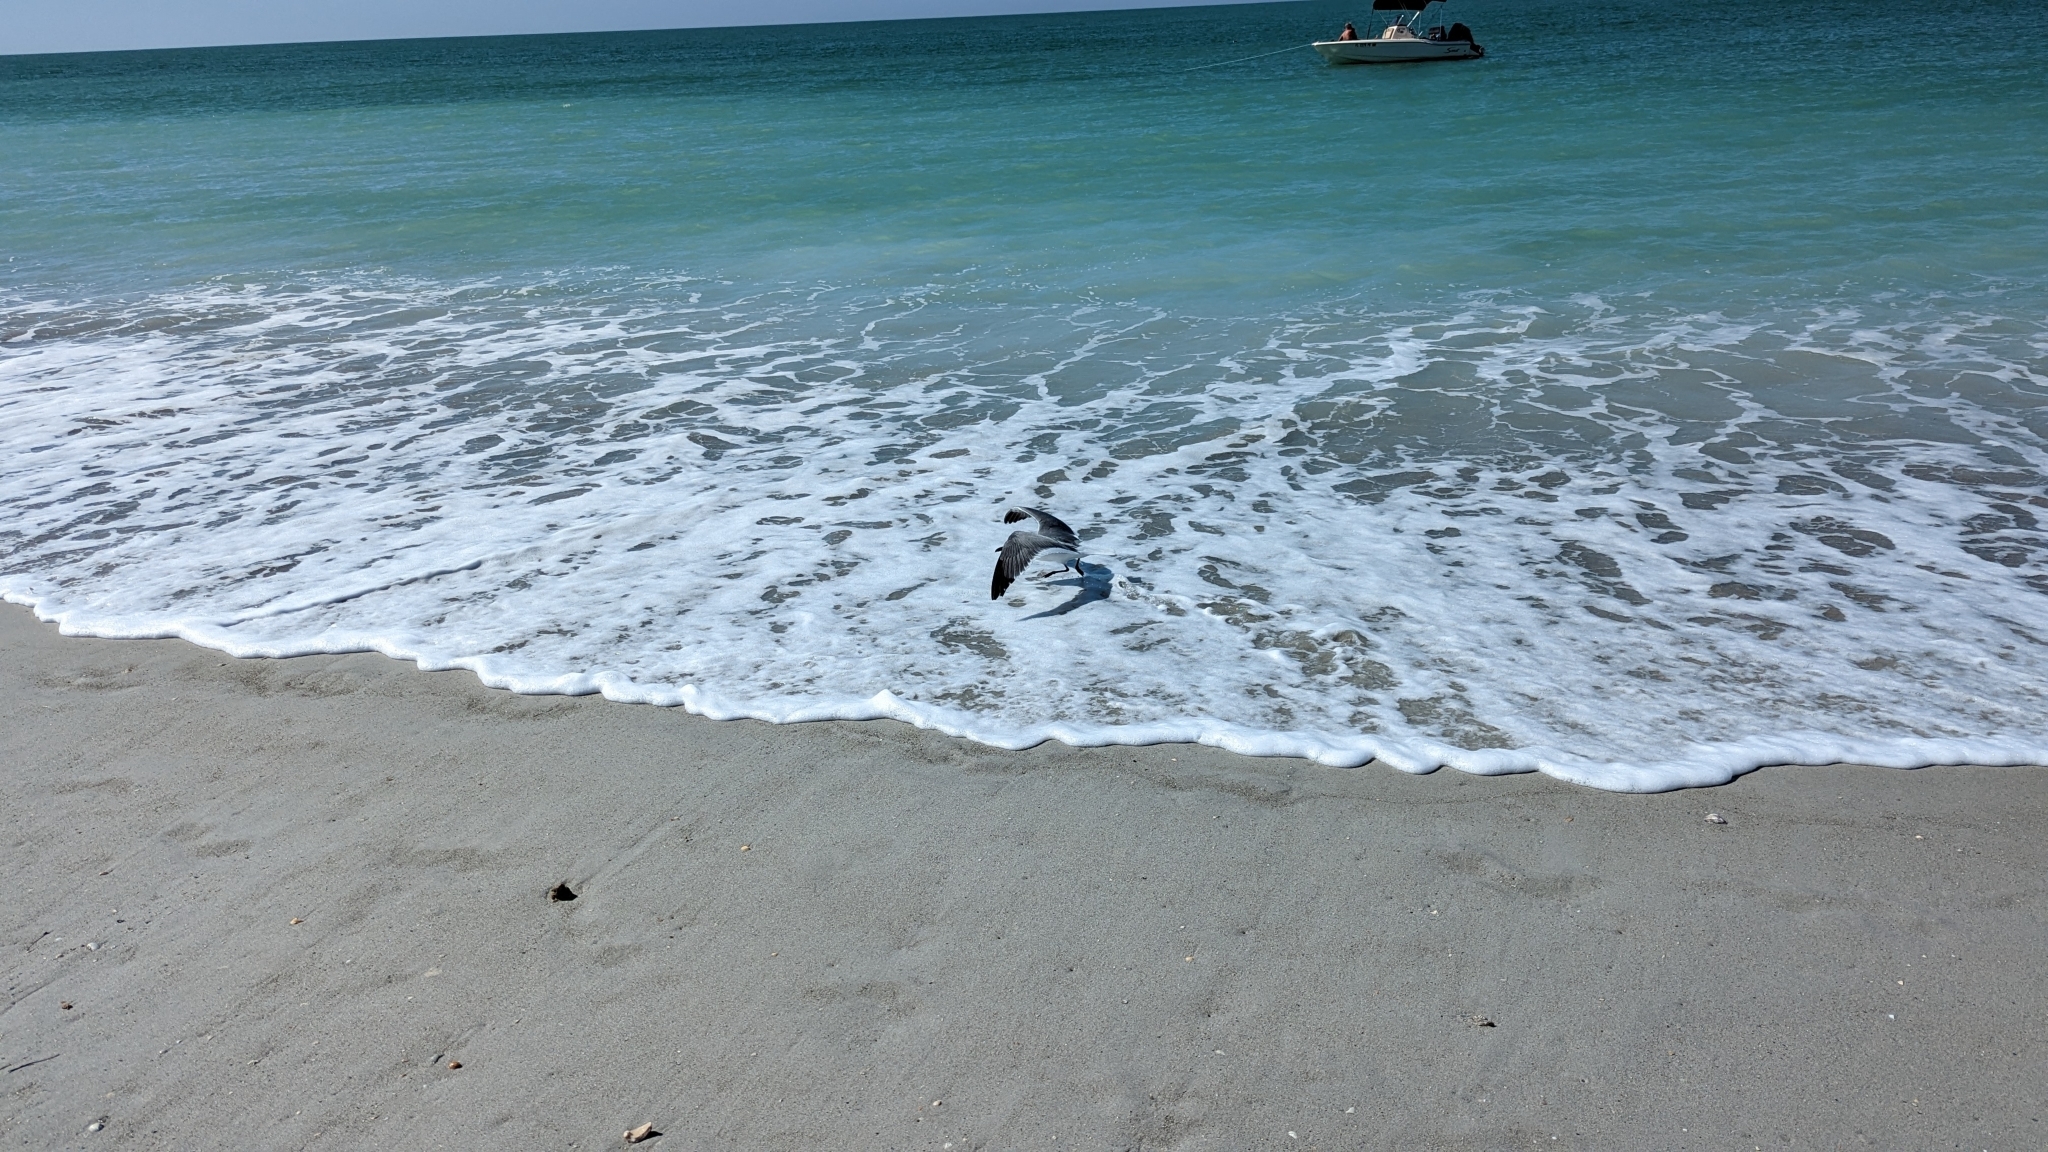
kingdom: Animalia
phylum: Chordata
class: Aves
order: Charadriiformes
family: Laridae
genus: Leucophaeus
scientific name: Leucophaeus atricilla
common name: Laughing gull
